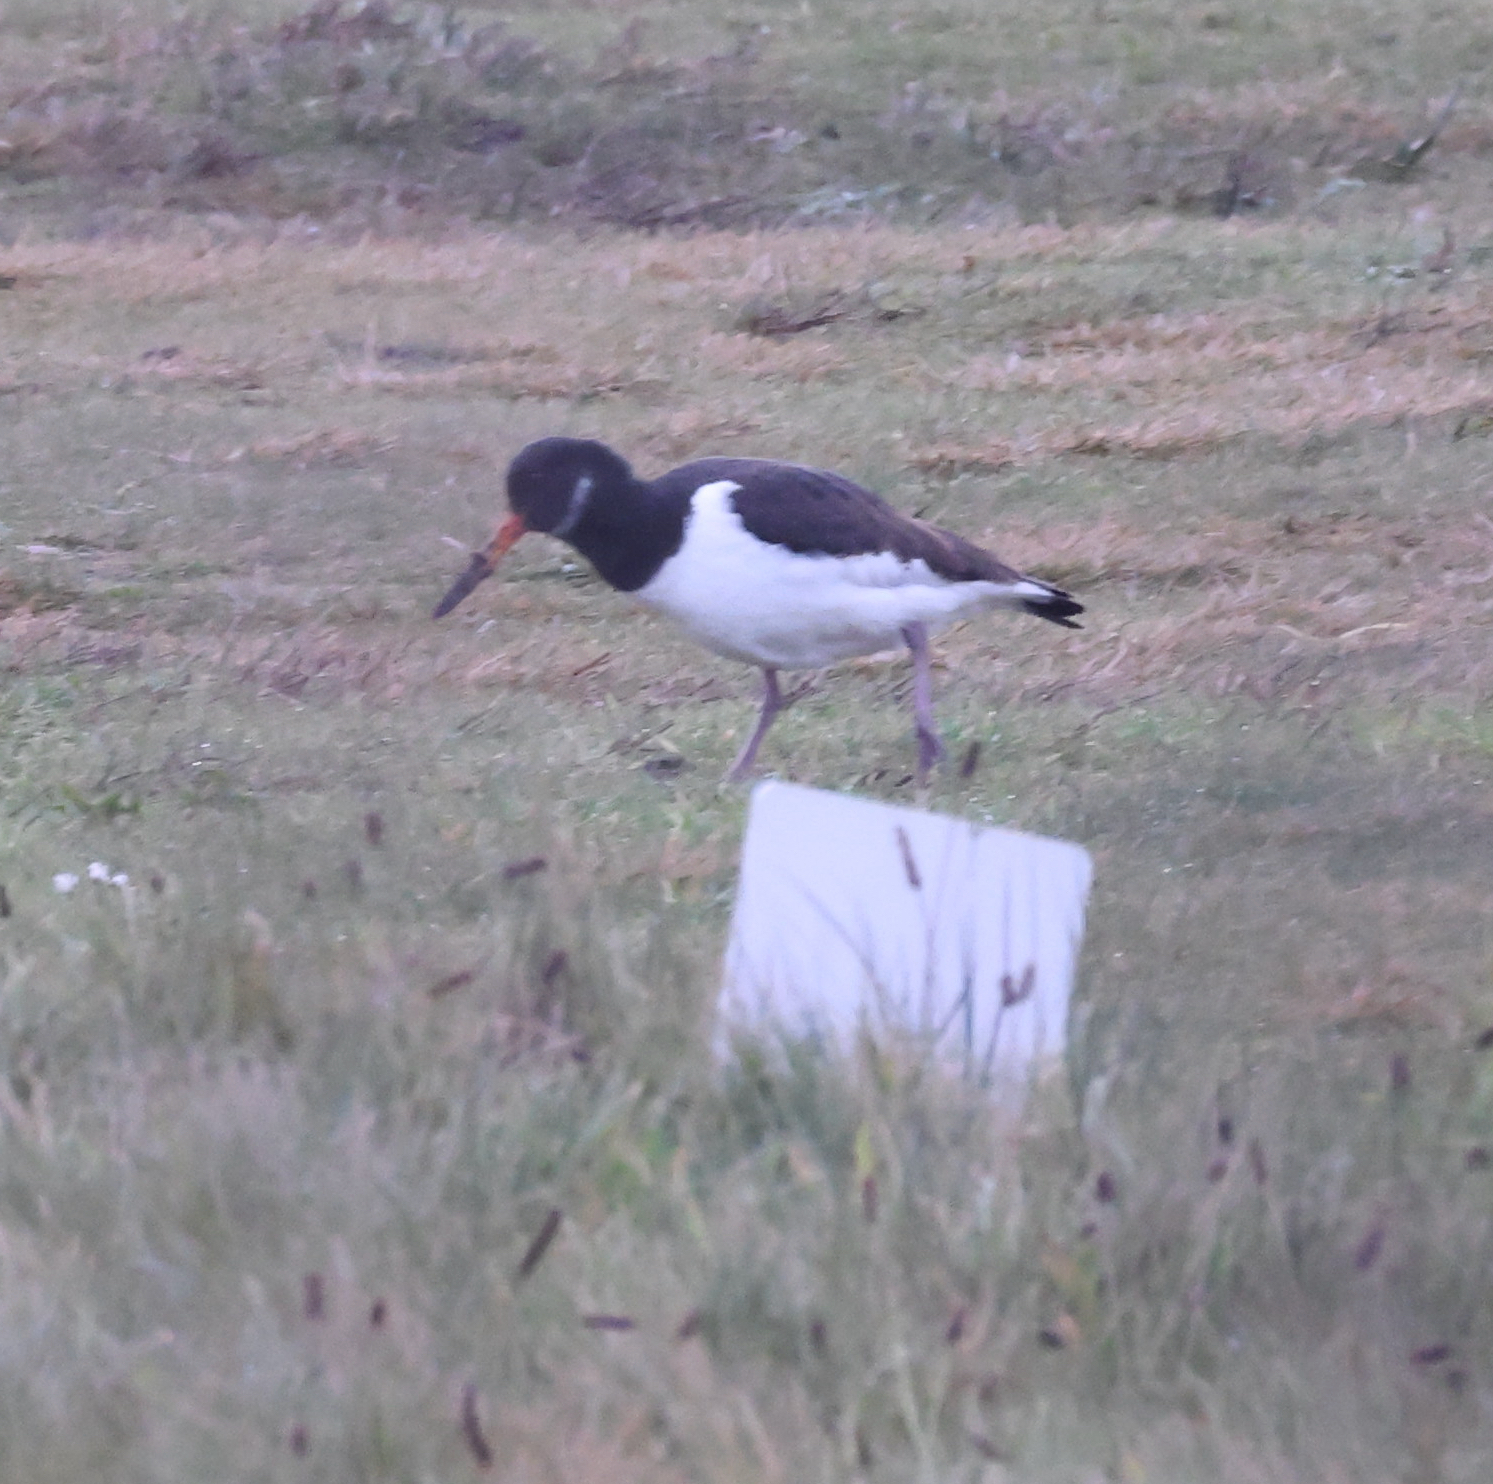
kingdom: Animalia
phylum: Chordata
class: Aves
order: Charadriiformes
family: Haematopodidae
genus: Haematopus
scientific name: Haematopus ostralegus
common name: Eurasian oystercatcher
